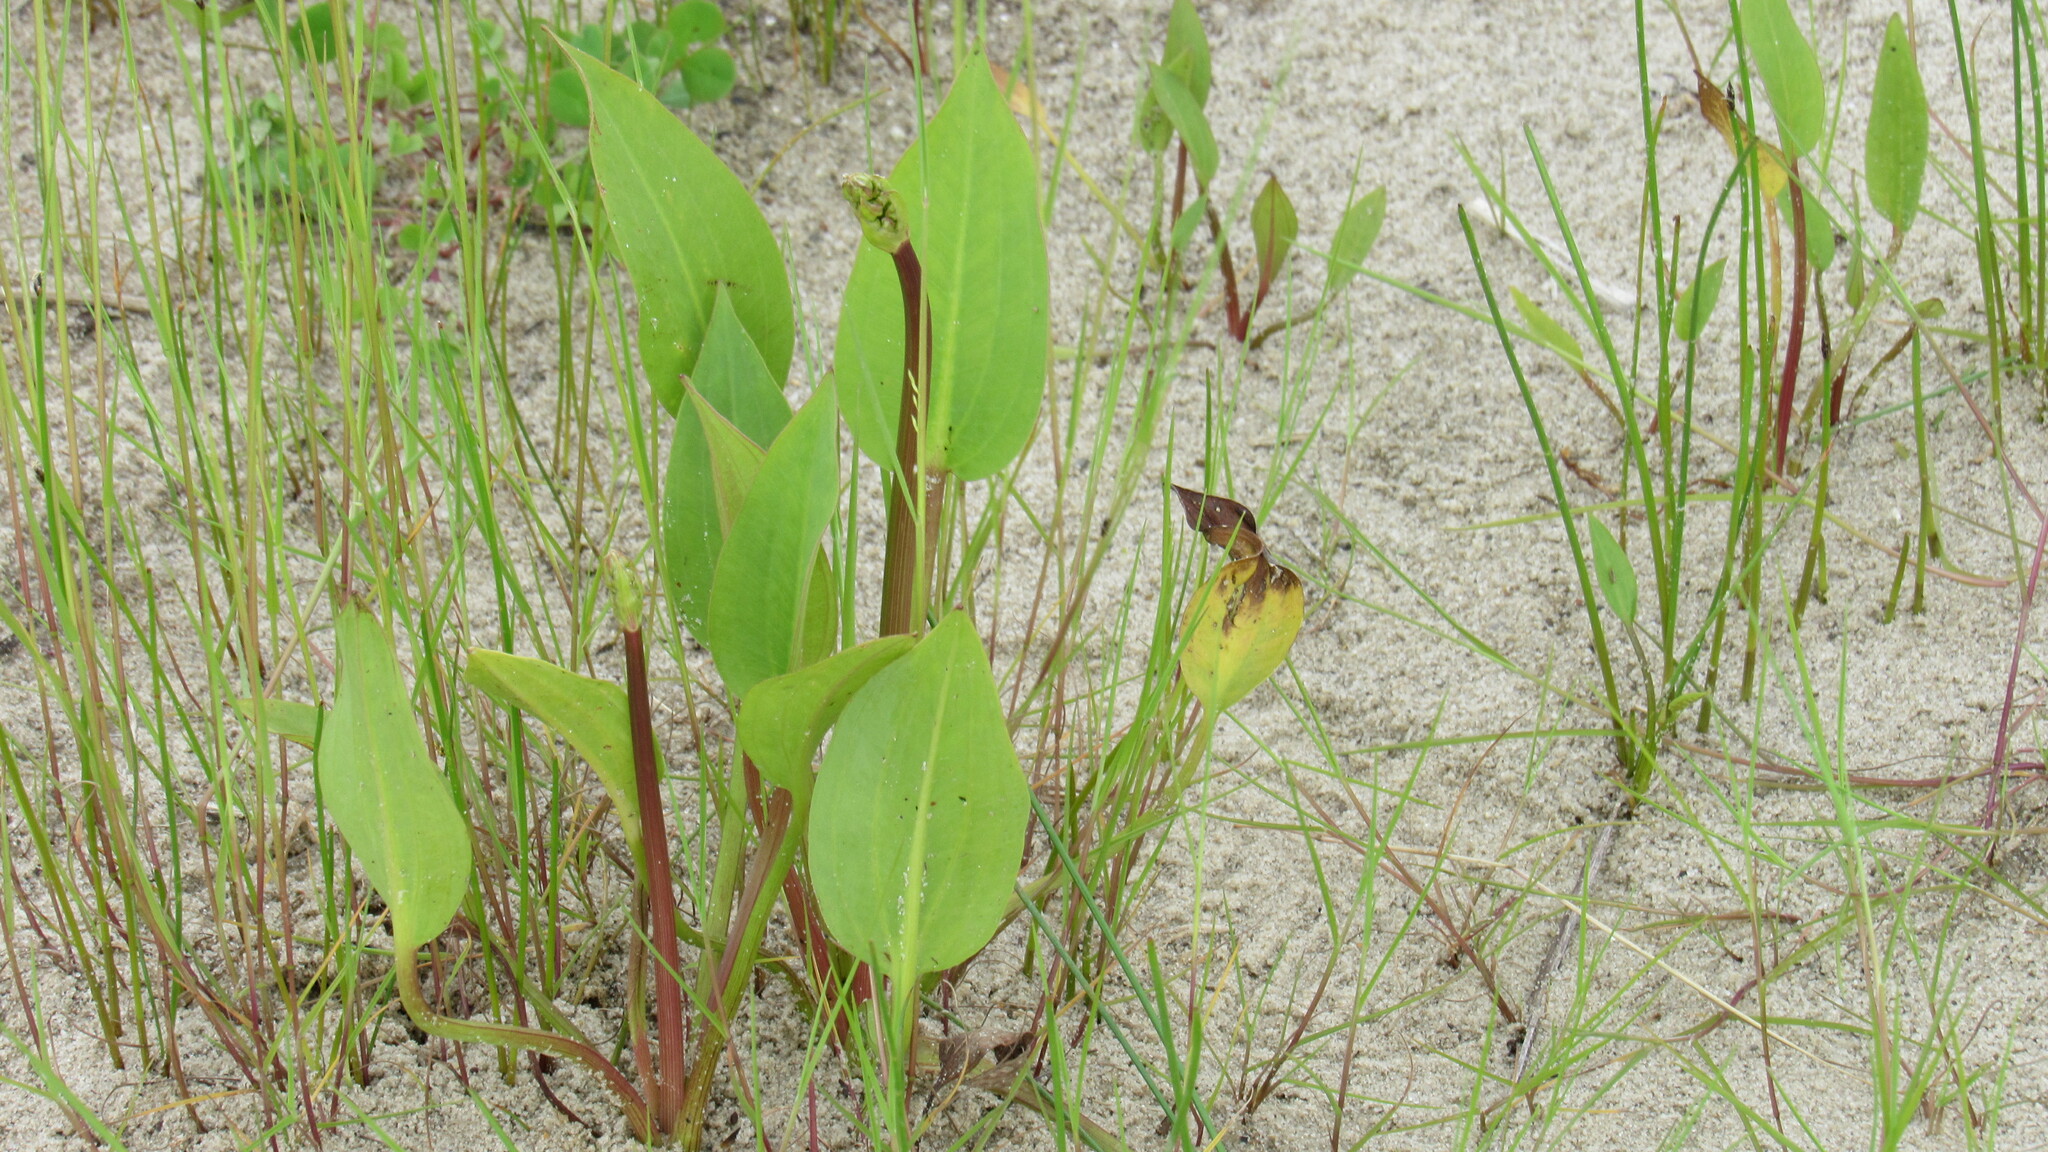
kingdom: Plantae
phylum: Tracheophyta
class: Liliopsida
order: Alismatales
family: Alismataceae
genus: Alisma
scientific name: Alisma plantago-aquatica
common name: Water-plantain
